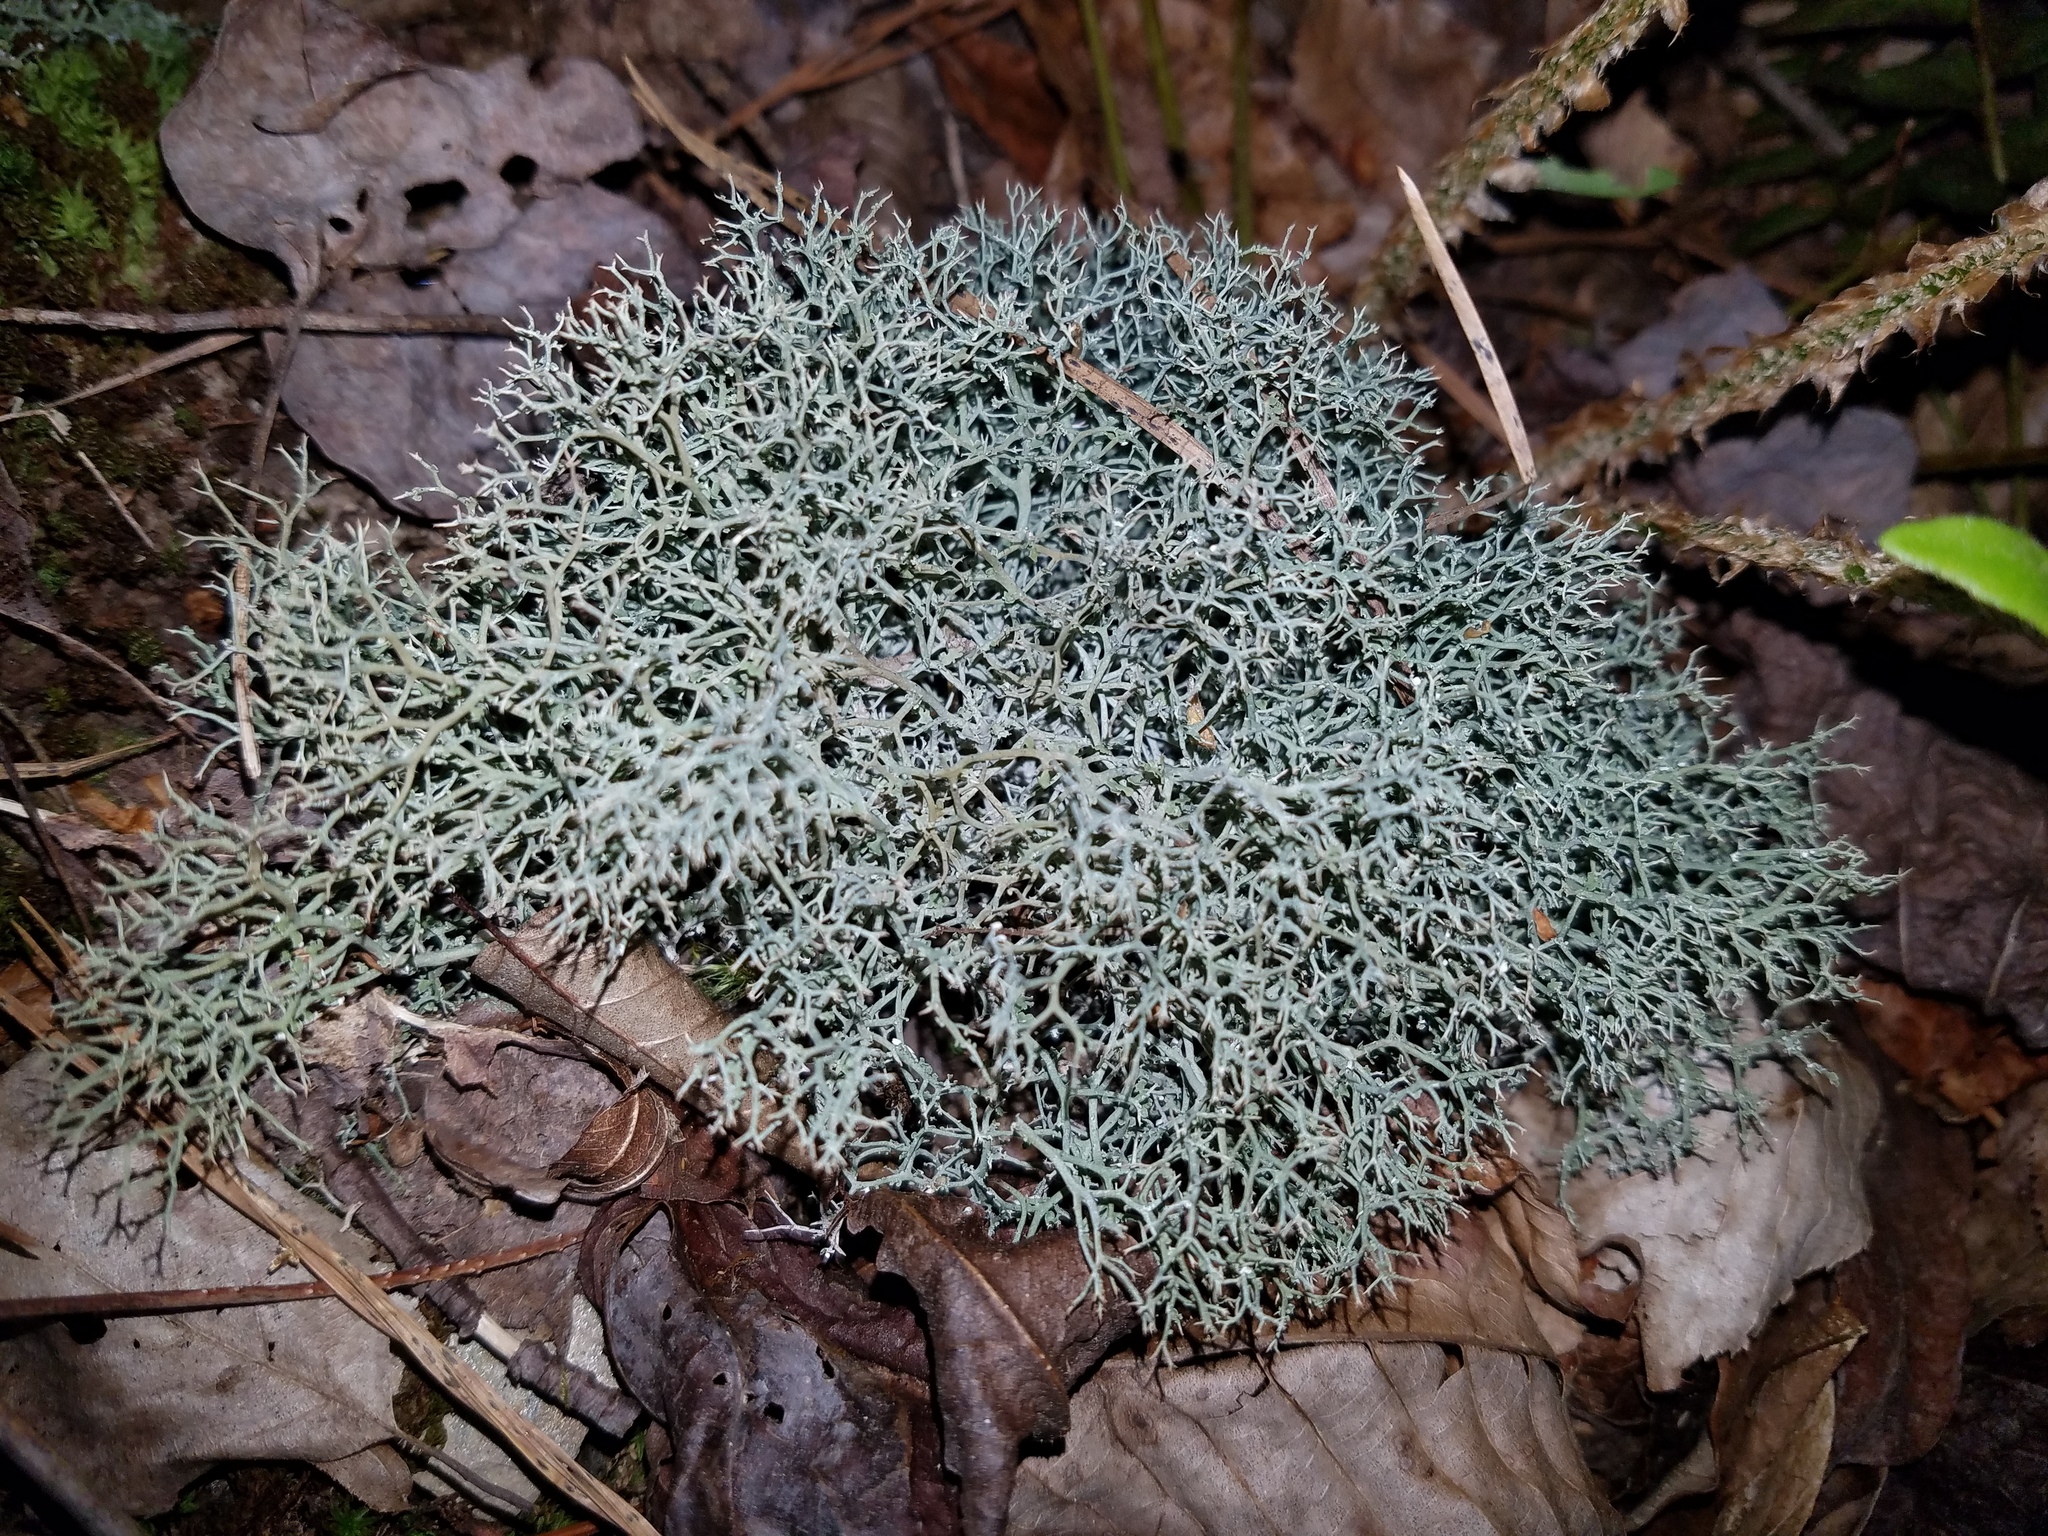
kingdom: Fungi
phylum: Ascomycota
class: Lecanoromycetes
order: Lecanorales
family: Cladoniaceae
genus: Cladonia
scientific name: Cladonia furcata
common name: Many-forked cladonia
